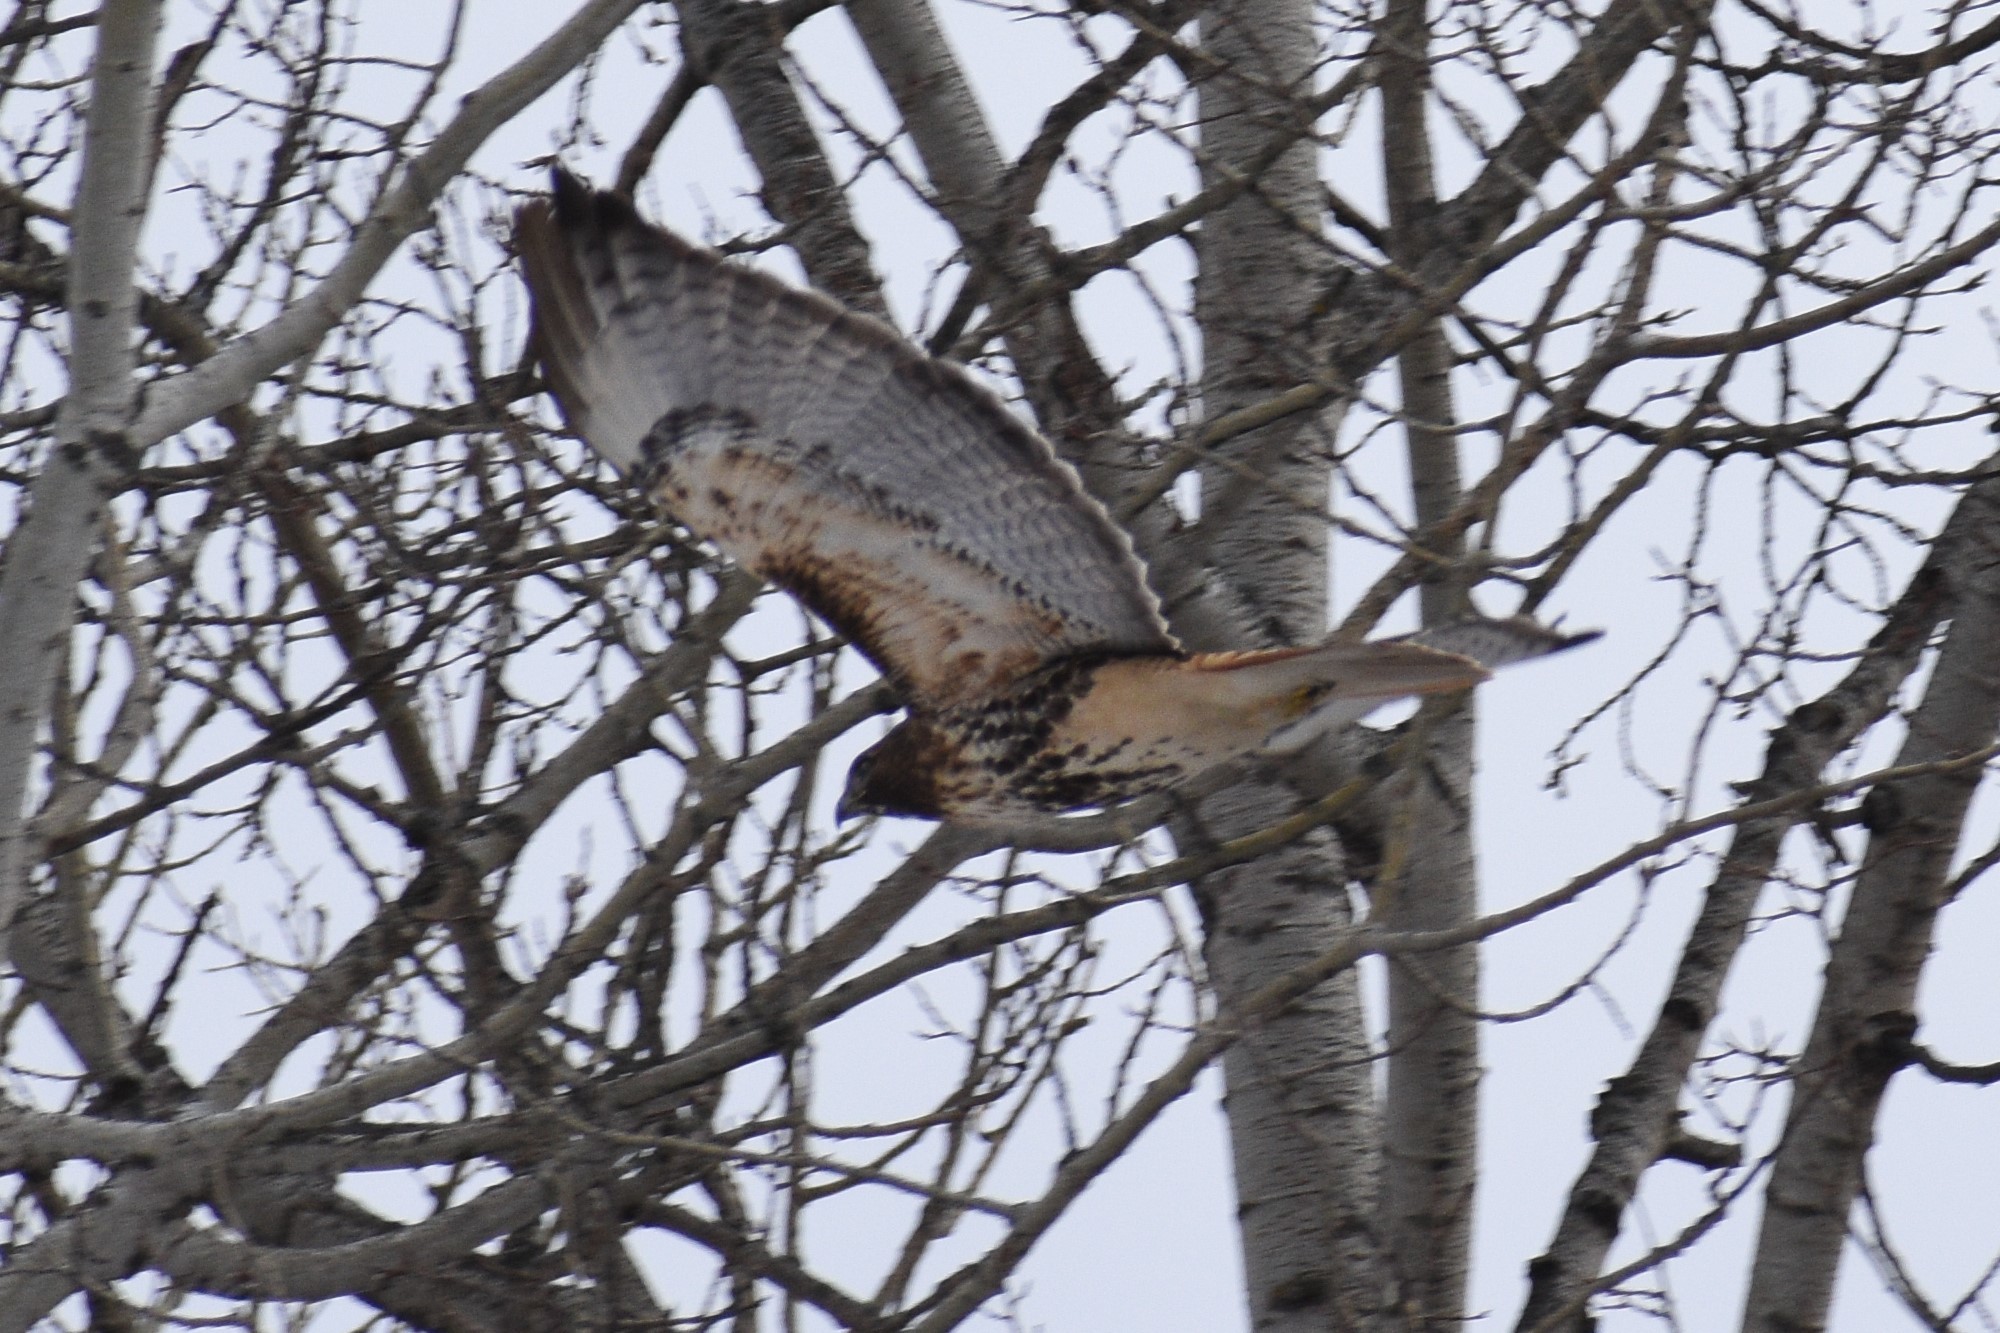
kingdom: Animalia
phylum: Chordata
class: Aves
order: Accipitriformes
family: Accipitridae
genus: Buteo
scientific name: Buteo jamaicensis
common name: Red-tailed hawk
